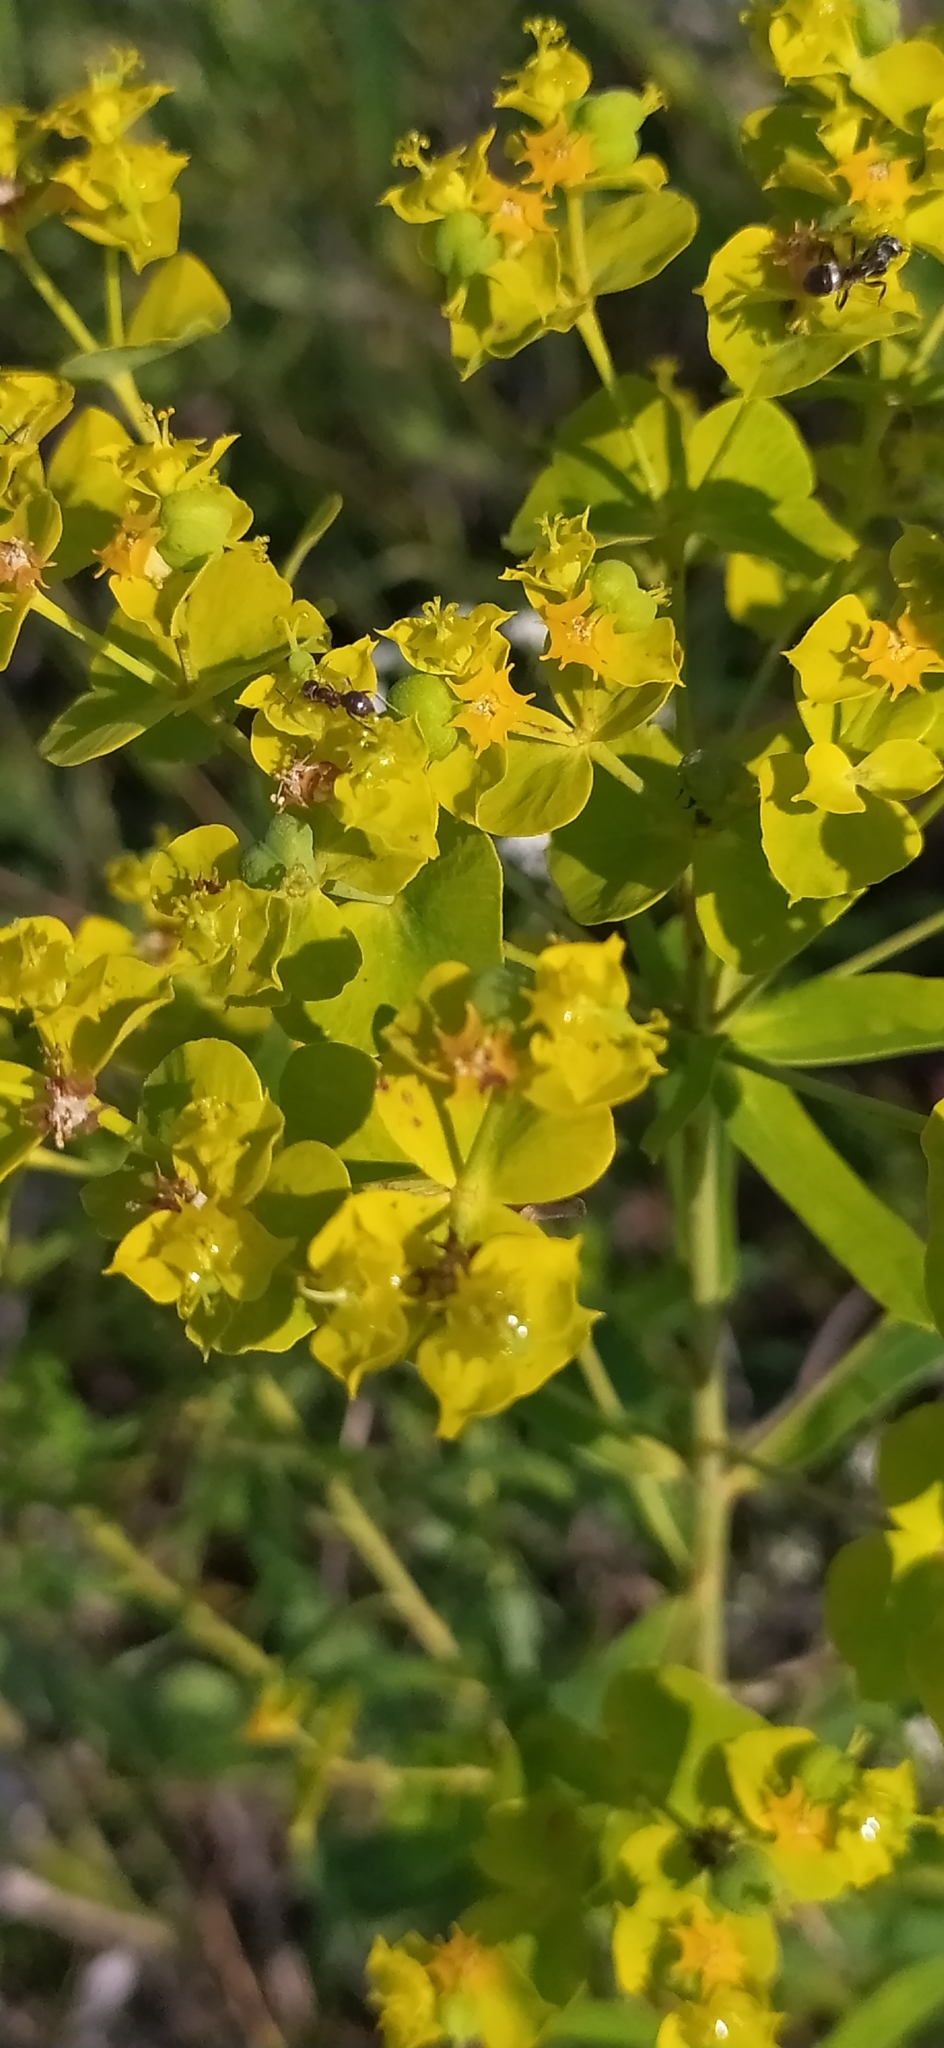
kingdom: Plantae
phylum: Tracheophyta
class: Magnoliopsida
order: Malpighiales
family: Euphorbiaceae
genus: Euphorbia
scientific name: Euphorbia virgata
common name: Leafy spurge
